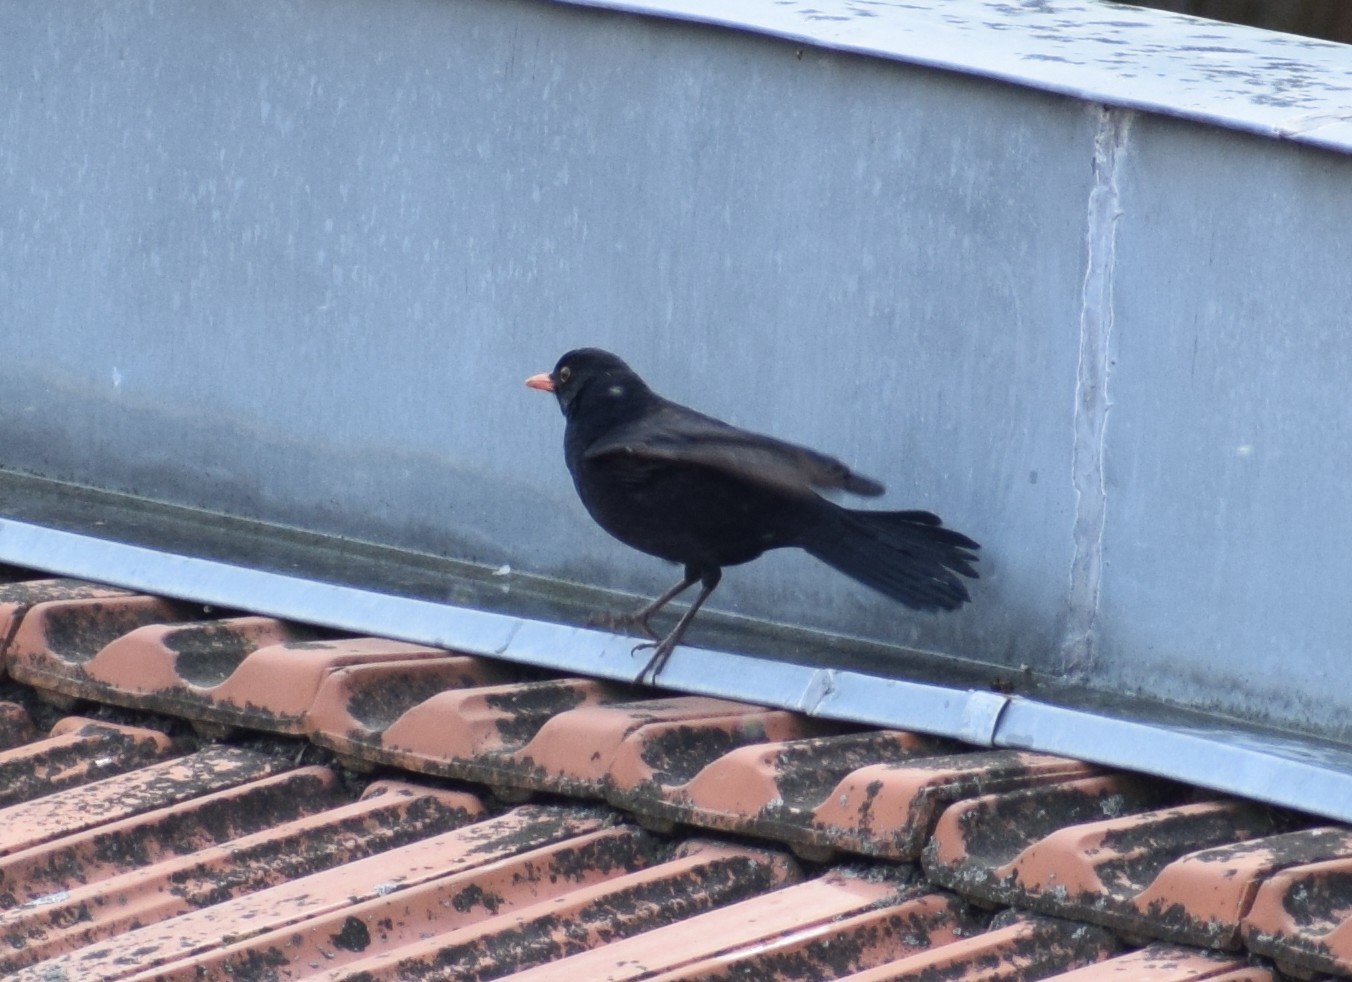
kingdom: Animalia
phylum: Chordata
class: Aves
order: Passeriformes
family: Turdidae
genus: Turdus
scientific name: Turdus merula
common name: Common blackbird
